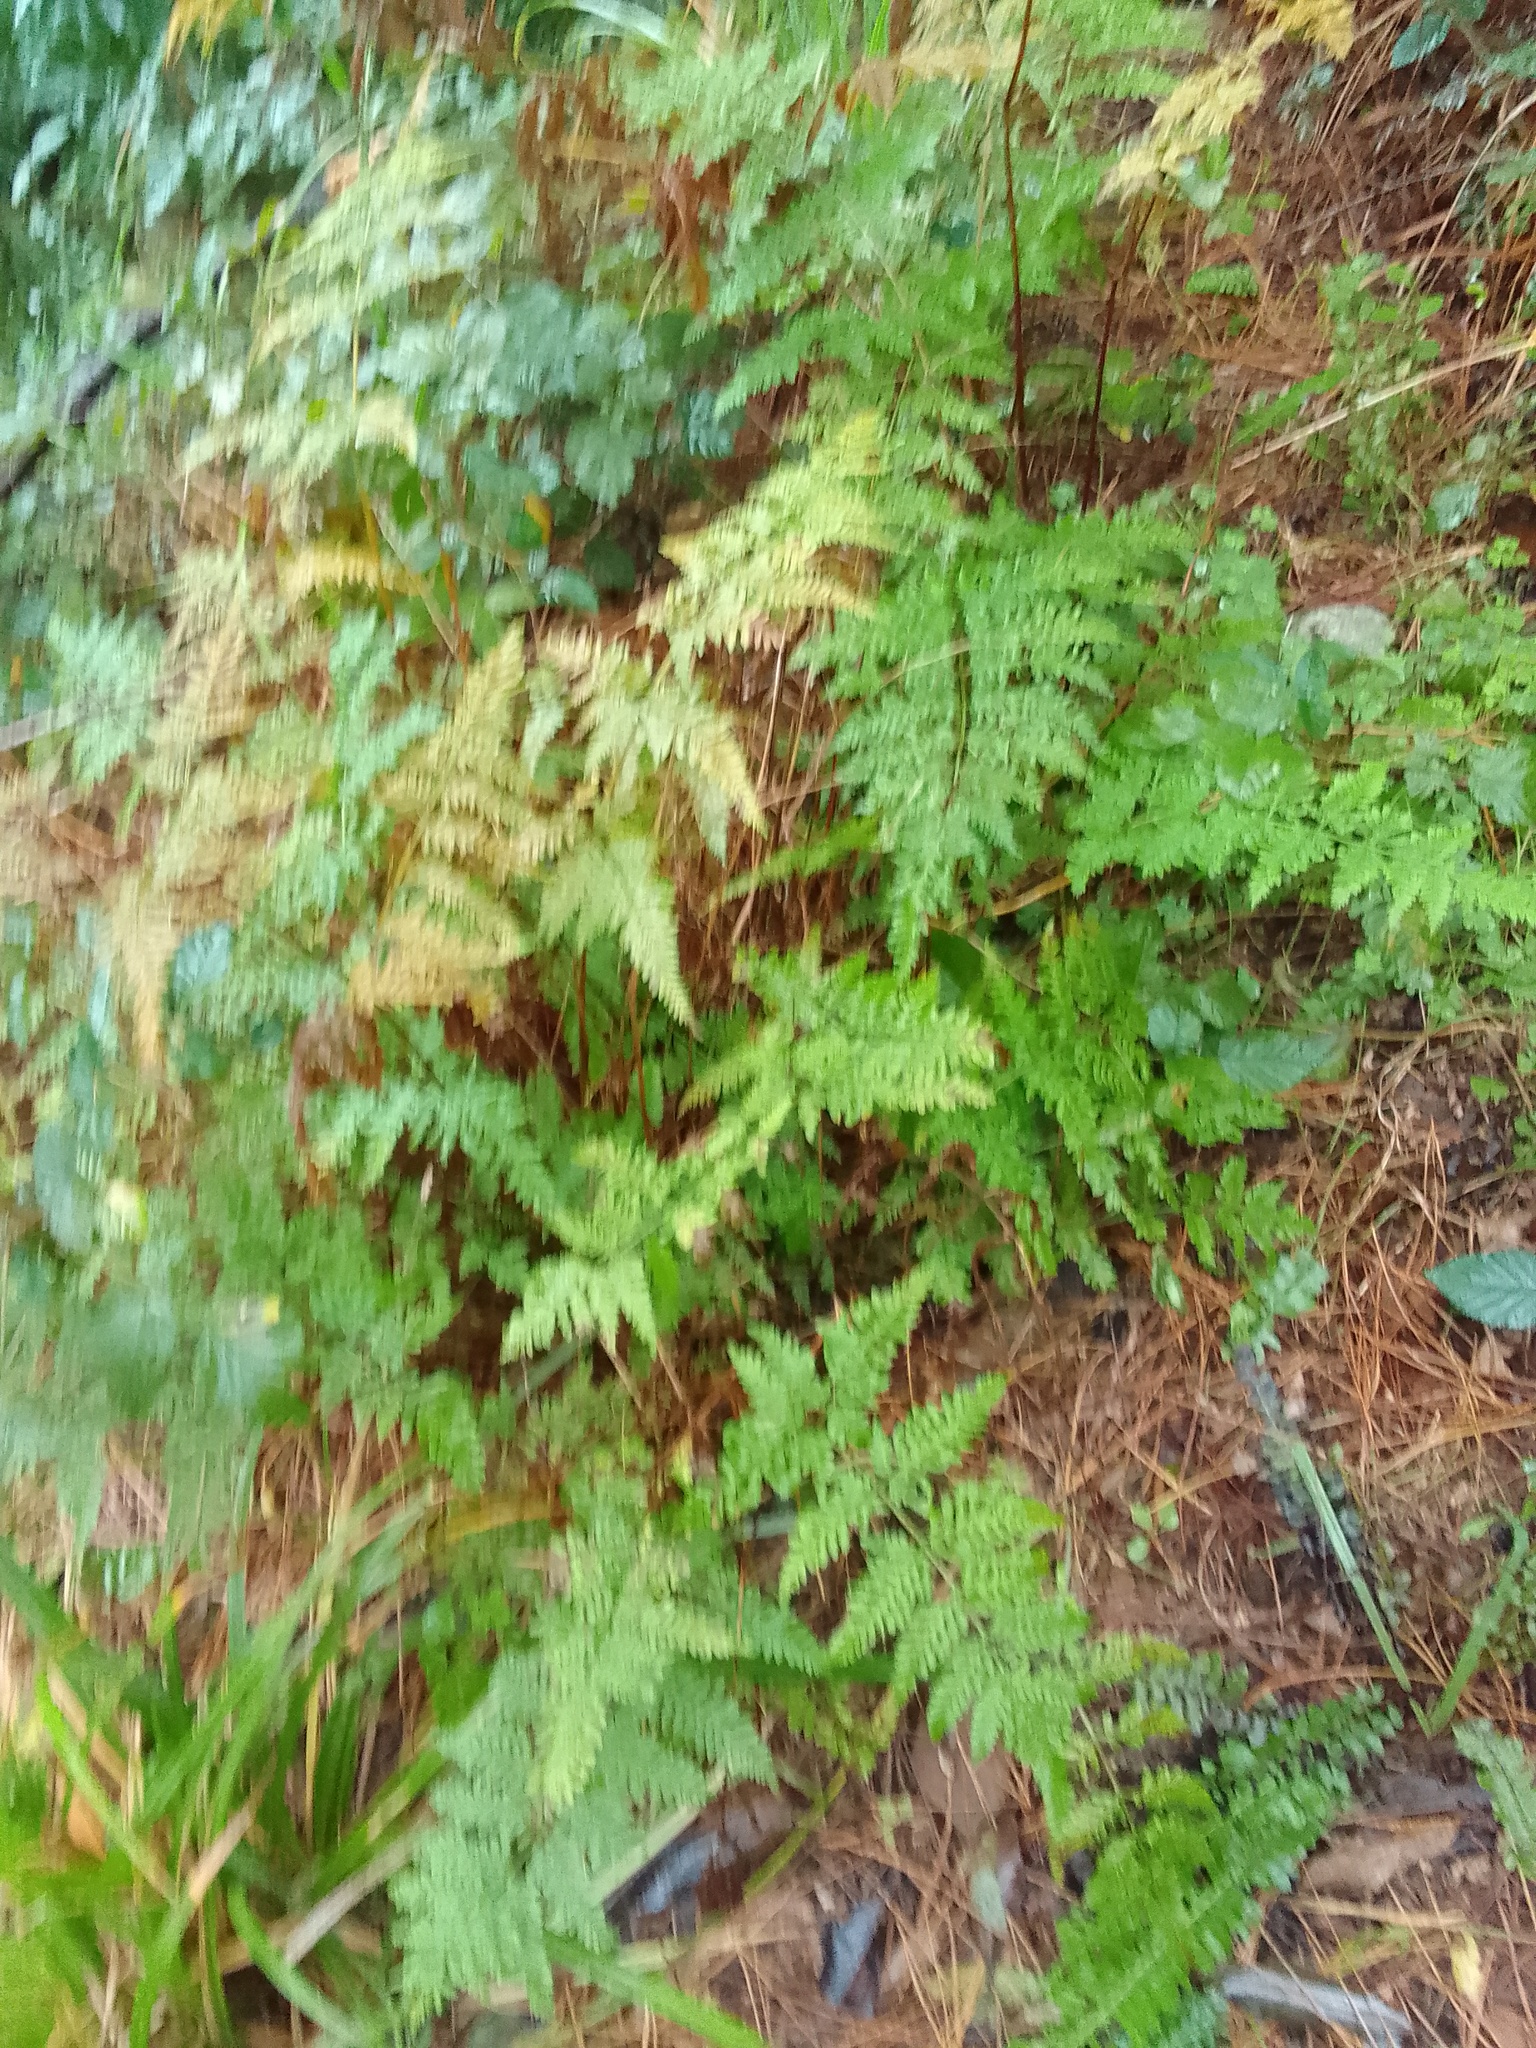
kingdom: Plantae
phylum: Tracheophyta
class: Polypodiopsida
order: Polypodiales
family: Pteridaceae
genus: Pteris
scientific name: Pteris tremula
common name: Australian brake
